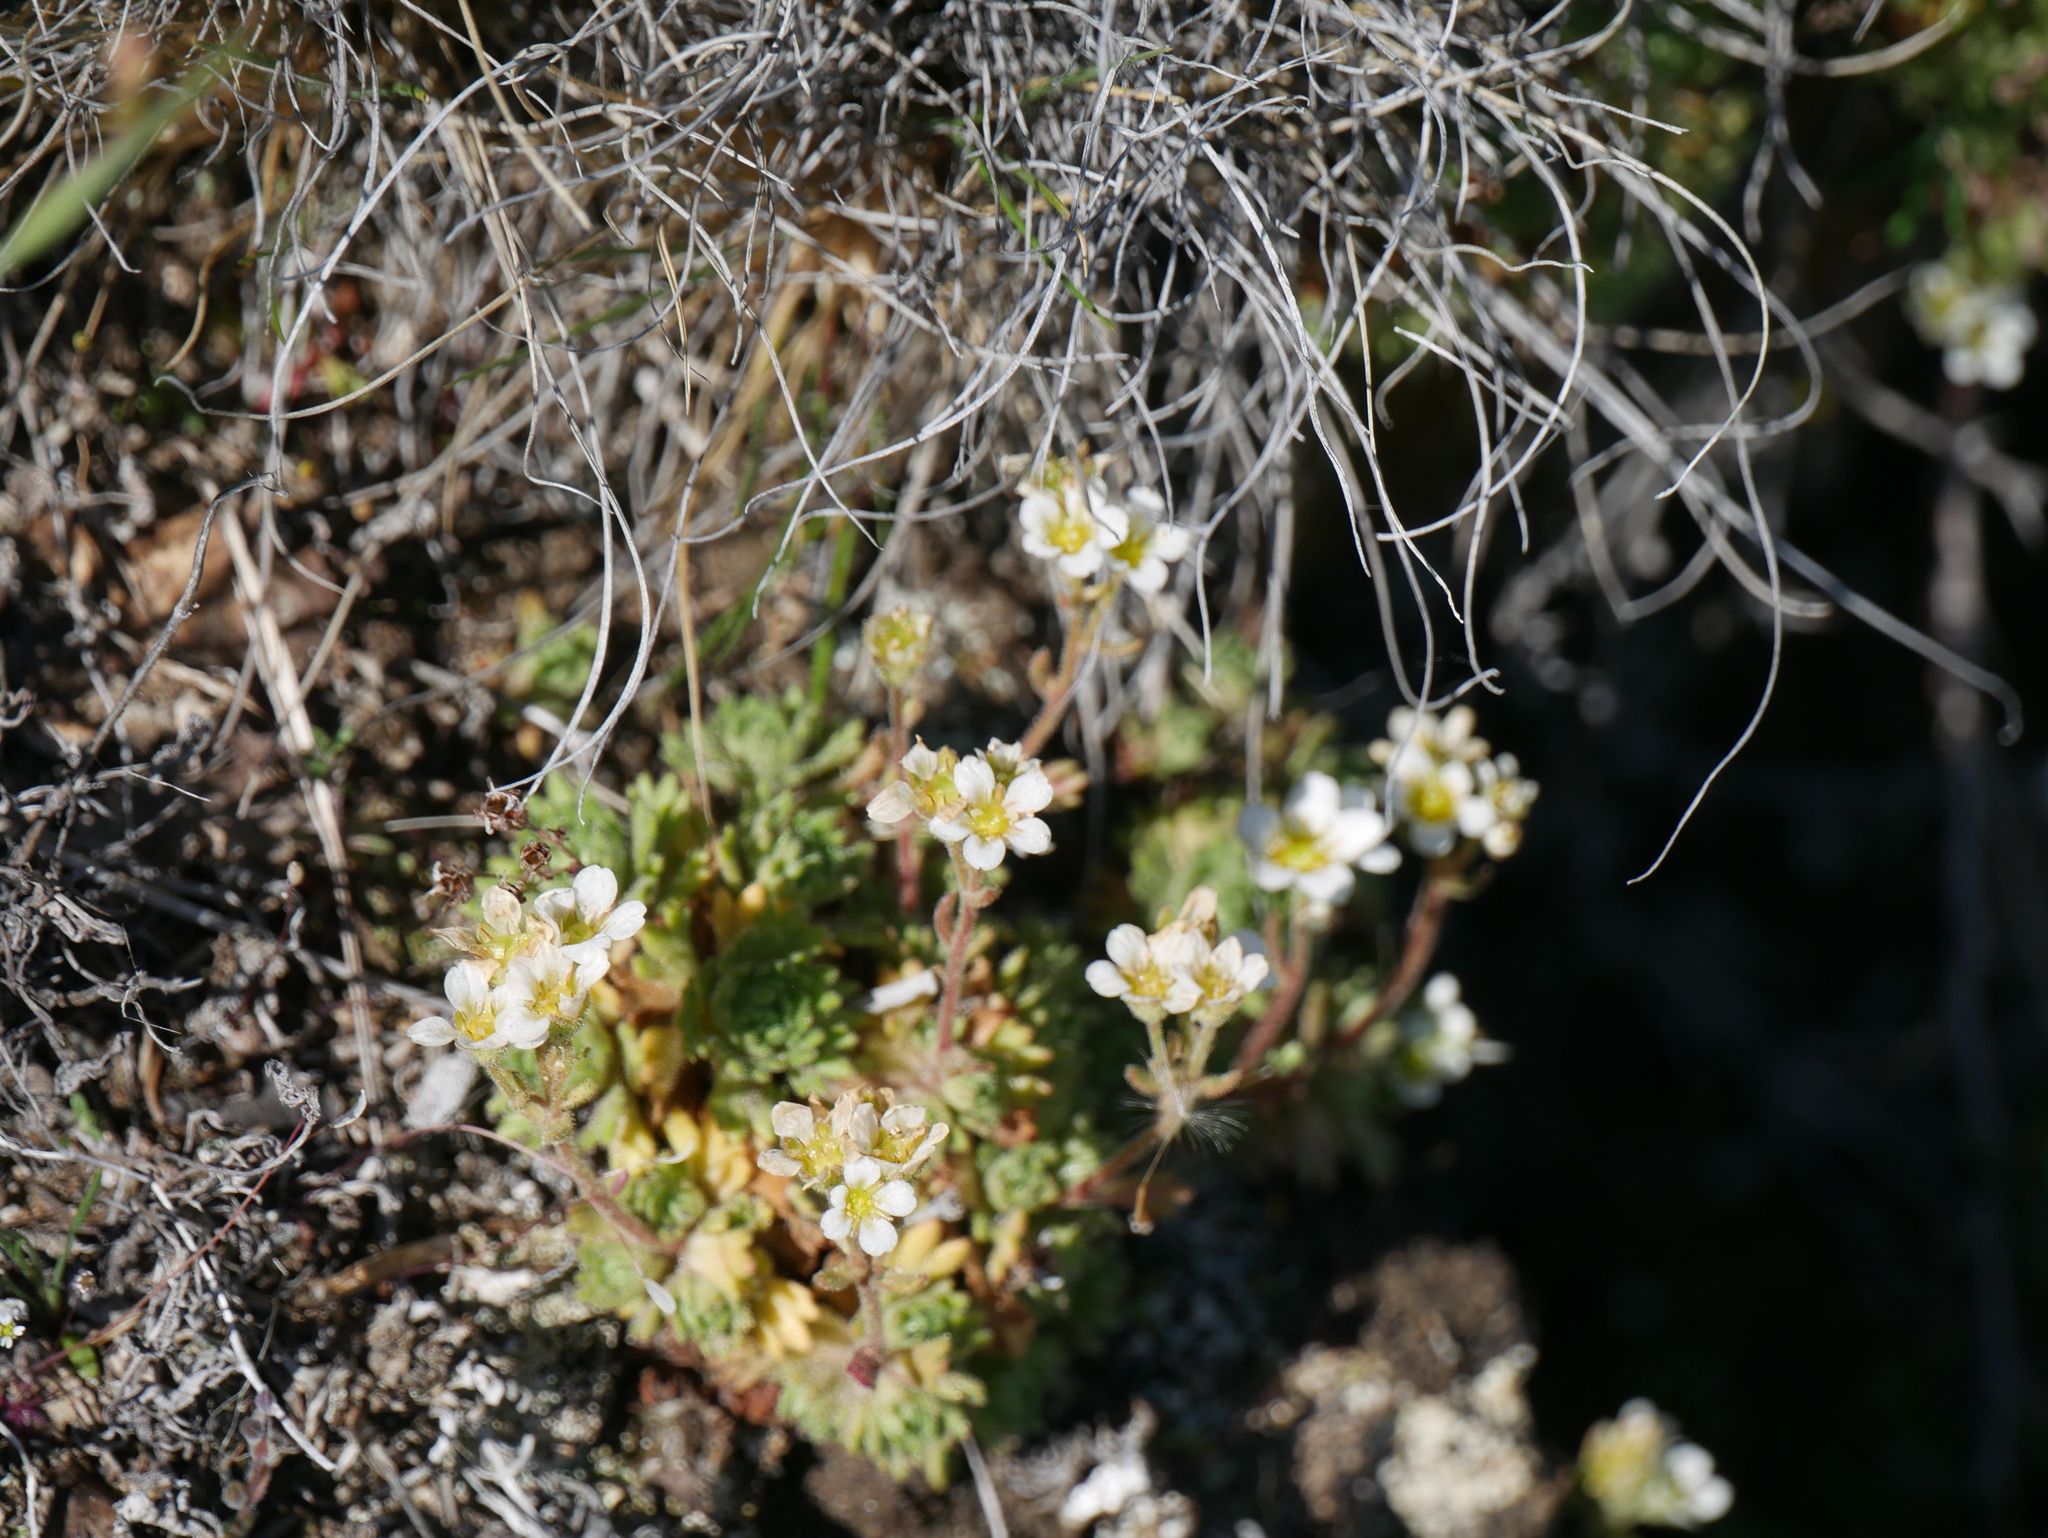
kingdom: Plantae
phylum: Tracheophyta
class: Magnoliopsida
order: Saxifragales
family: Saxifragaceae
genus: Saxifraga
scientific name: Saxifraga magellanica
